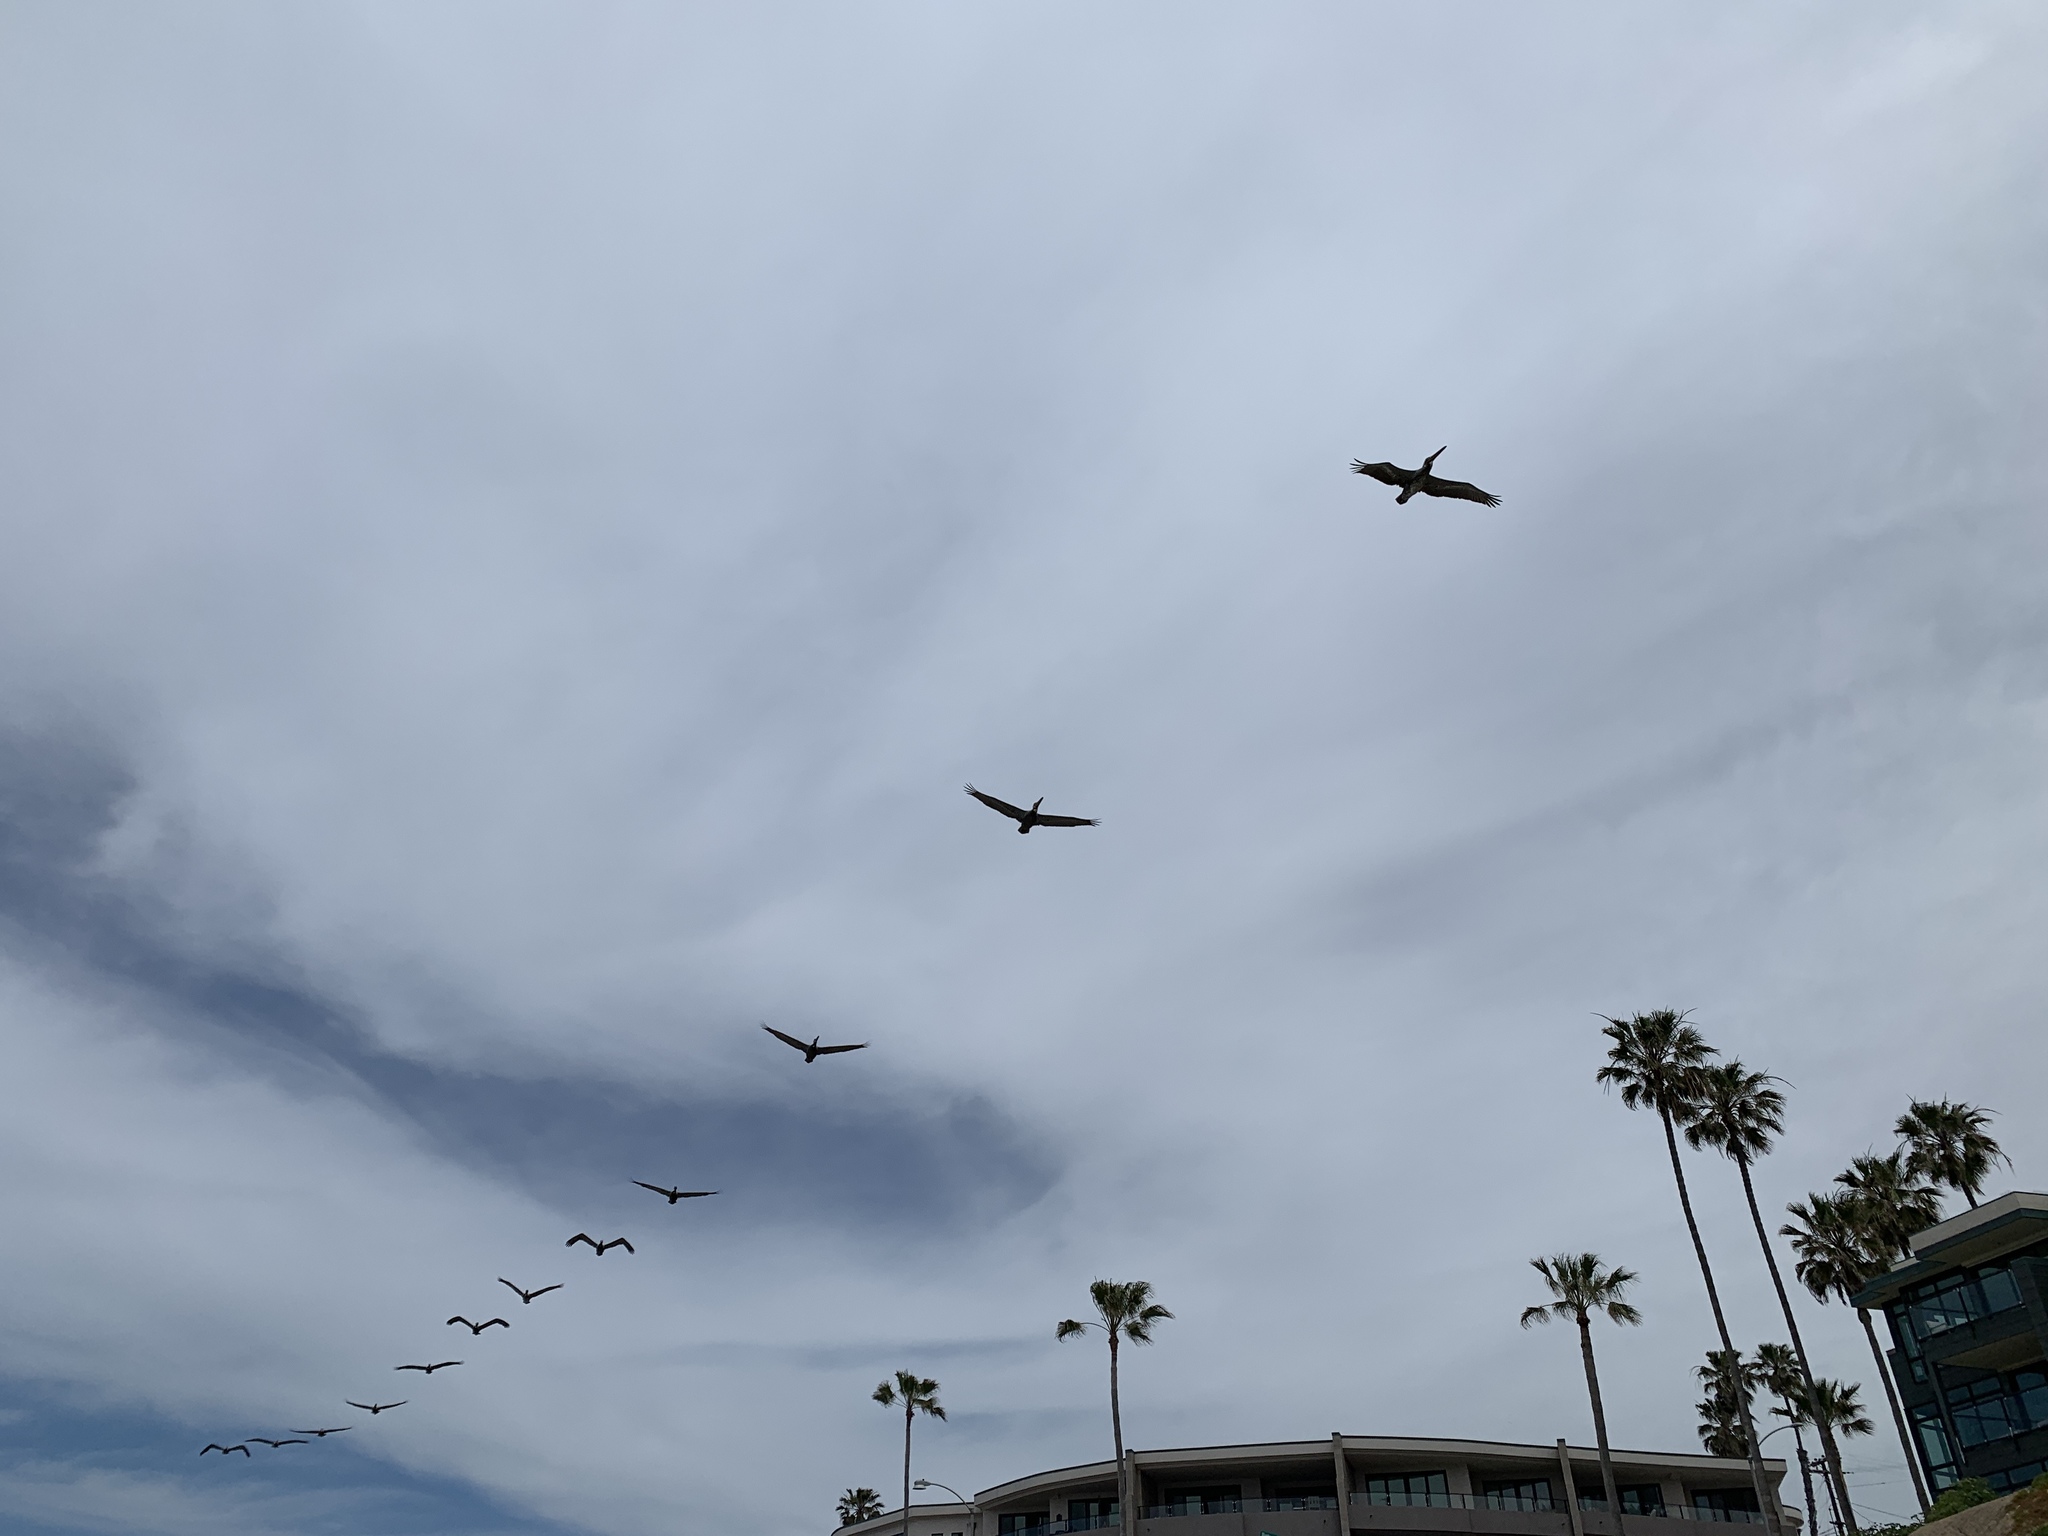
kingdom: Animalia
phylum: Chordata
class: Aves
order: Pelecaniformes
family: Pelecanidae
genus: Pelecanus
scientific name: Pelecanus occidentalis
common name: Brown pelican
